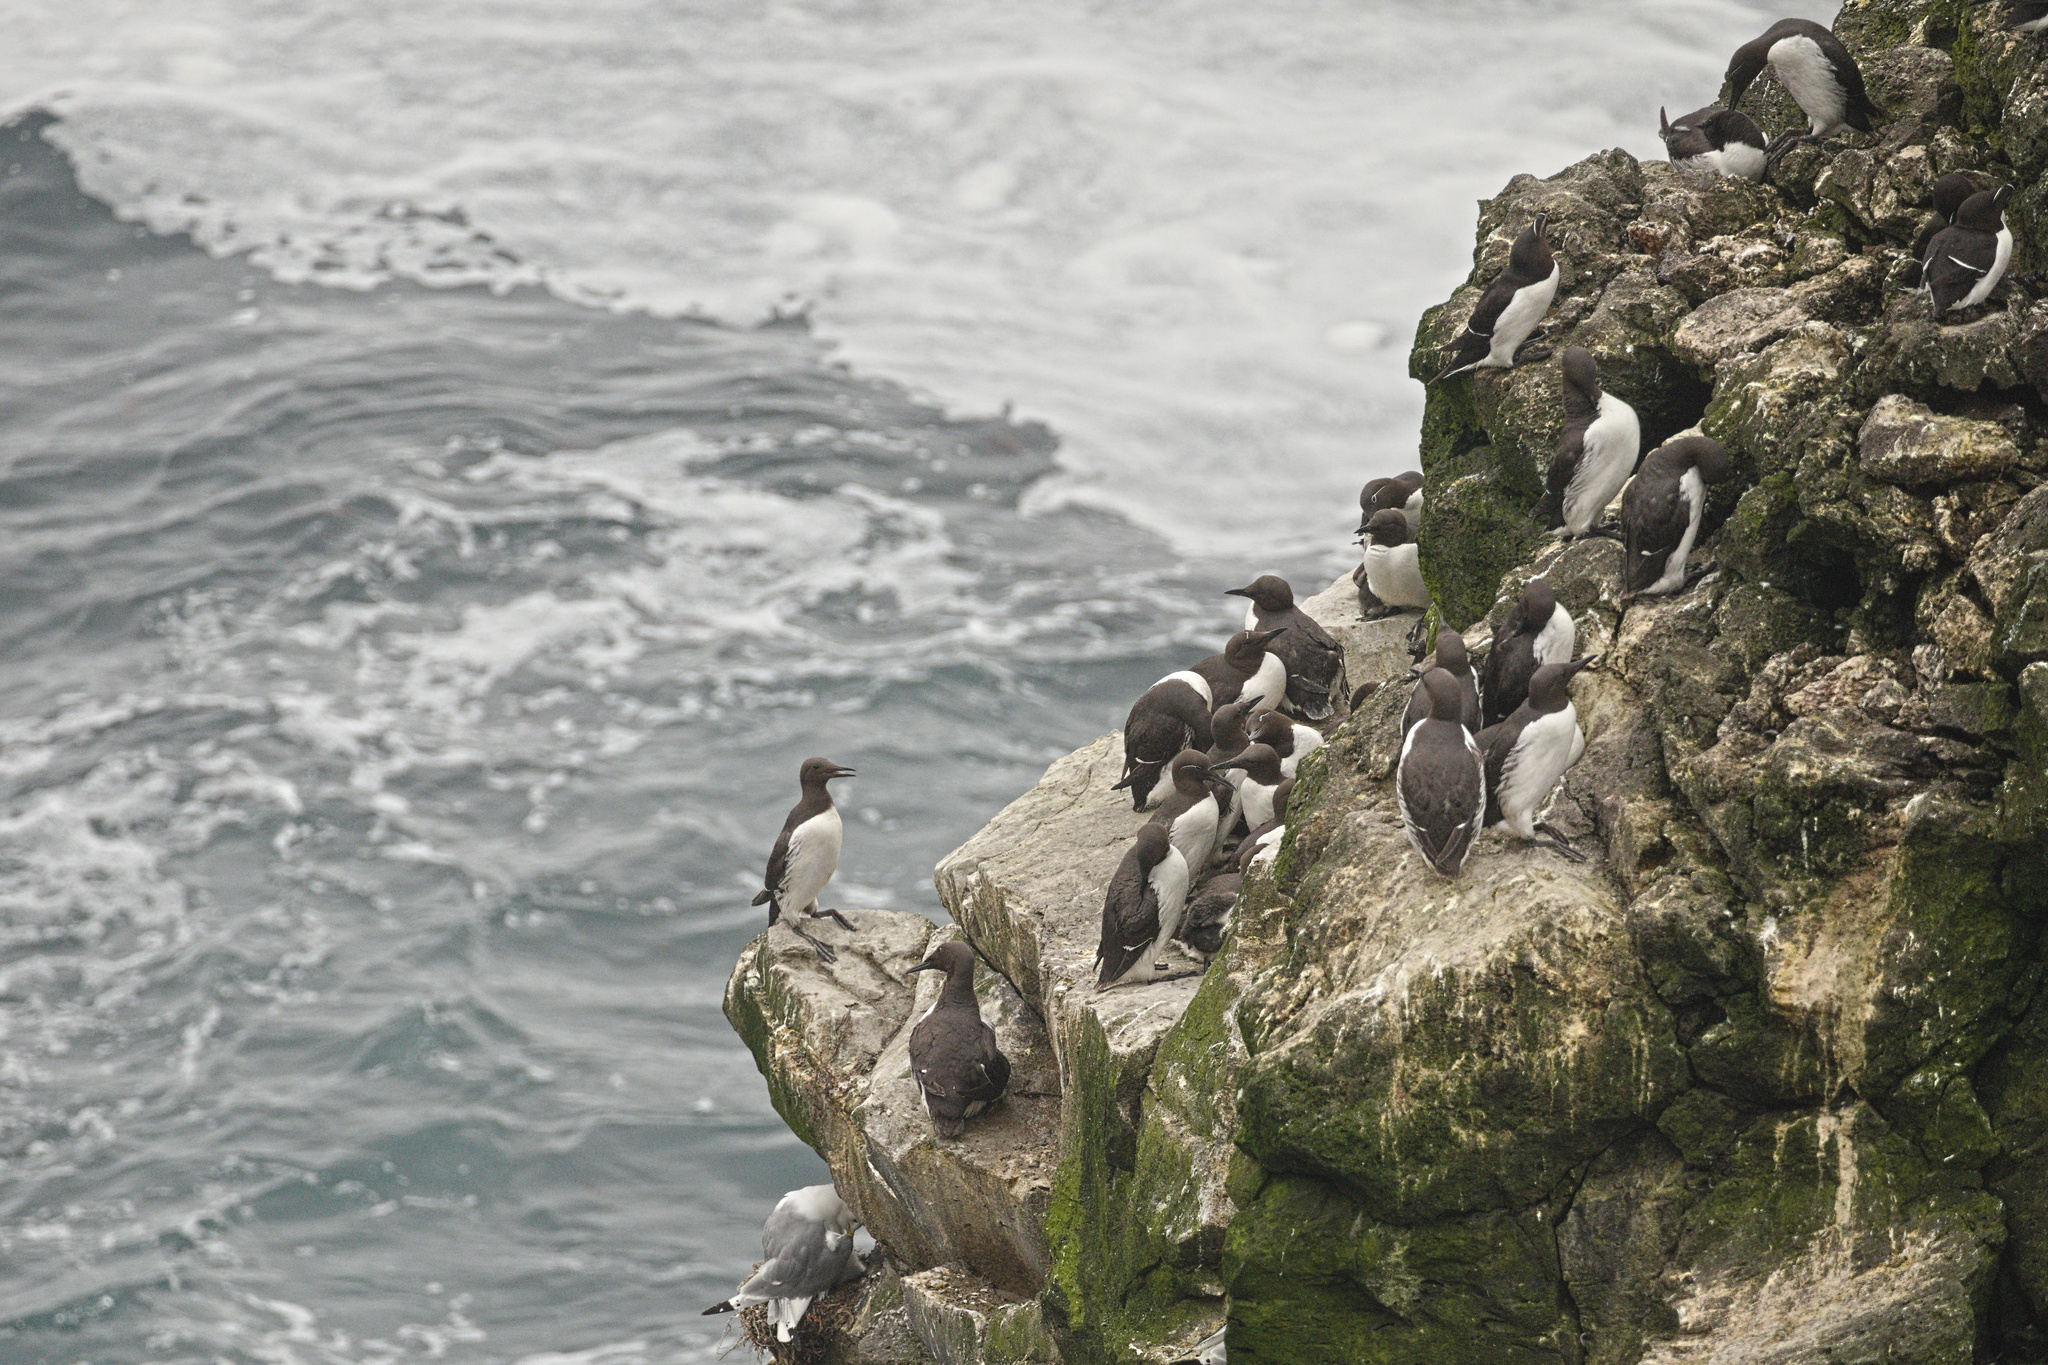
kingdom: Animalia
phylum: Chordata
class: Aves
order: Charadriiformes
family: Alcidae
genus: Uria
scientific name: Uria aalge
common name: Common murre
